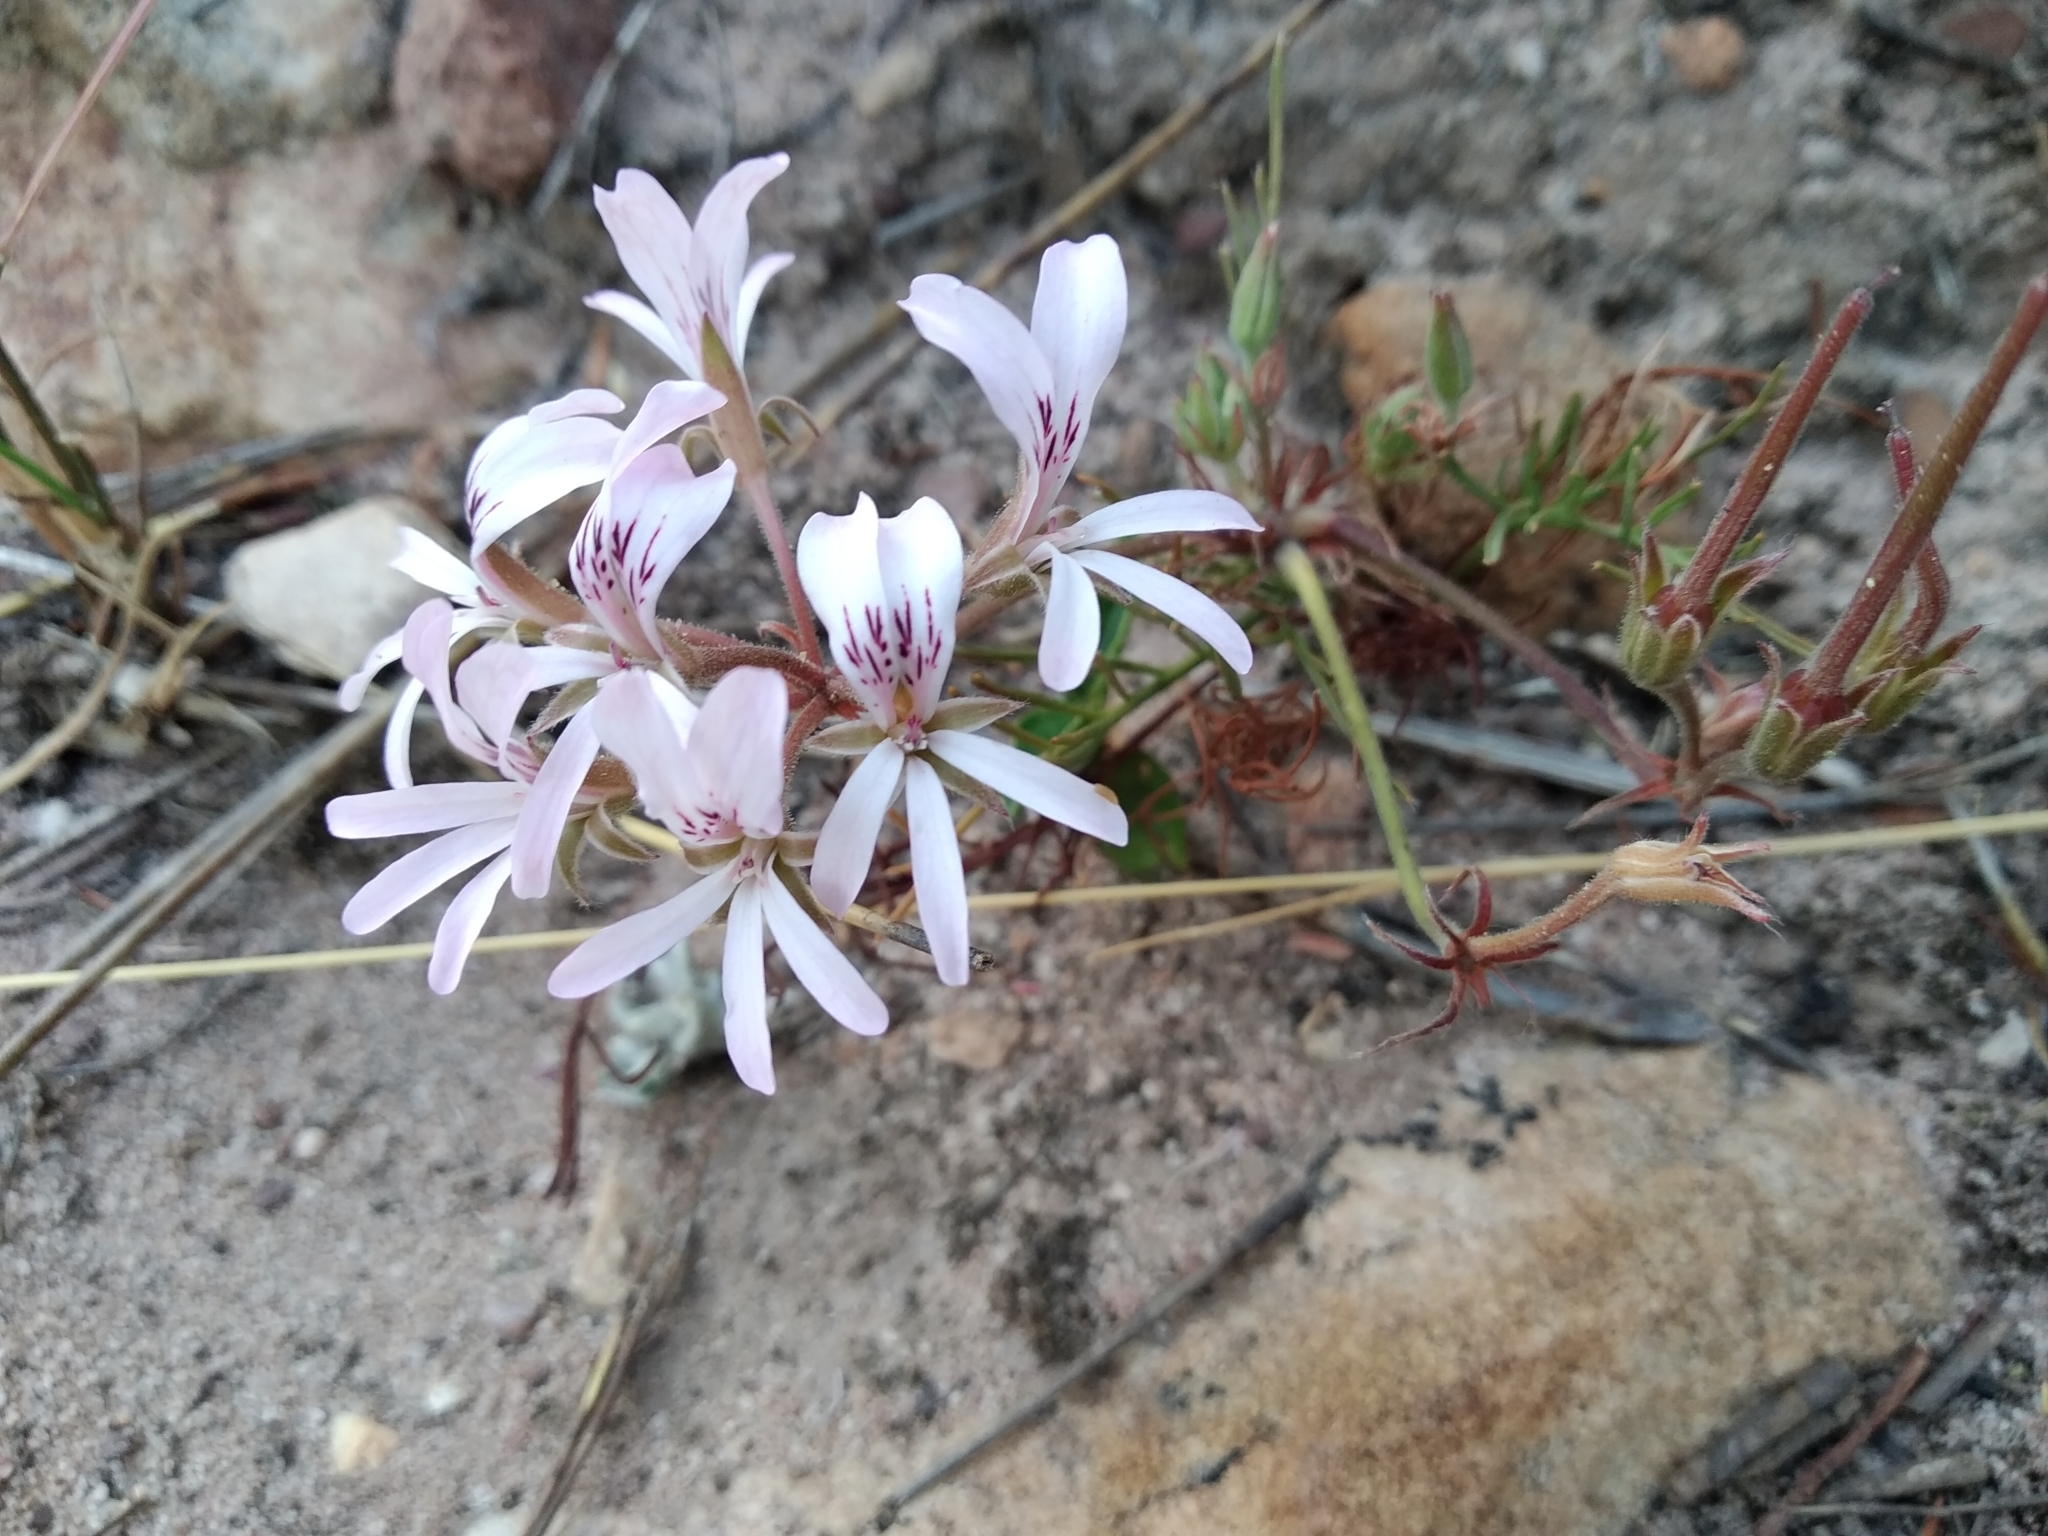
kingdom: Plantae
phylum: Tracheophyta
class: Magnoliopsida
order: Geraniales
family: Geraniaceae
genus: Pelargonium
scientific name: Pelargonium psammophilum
